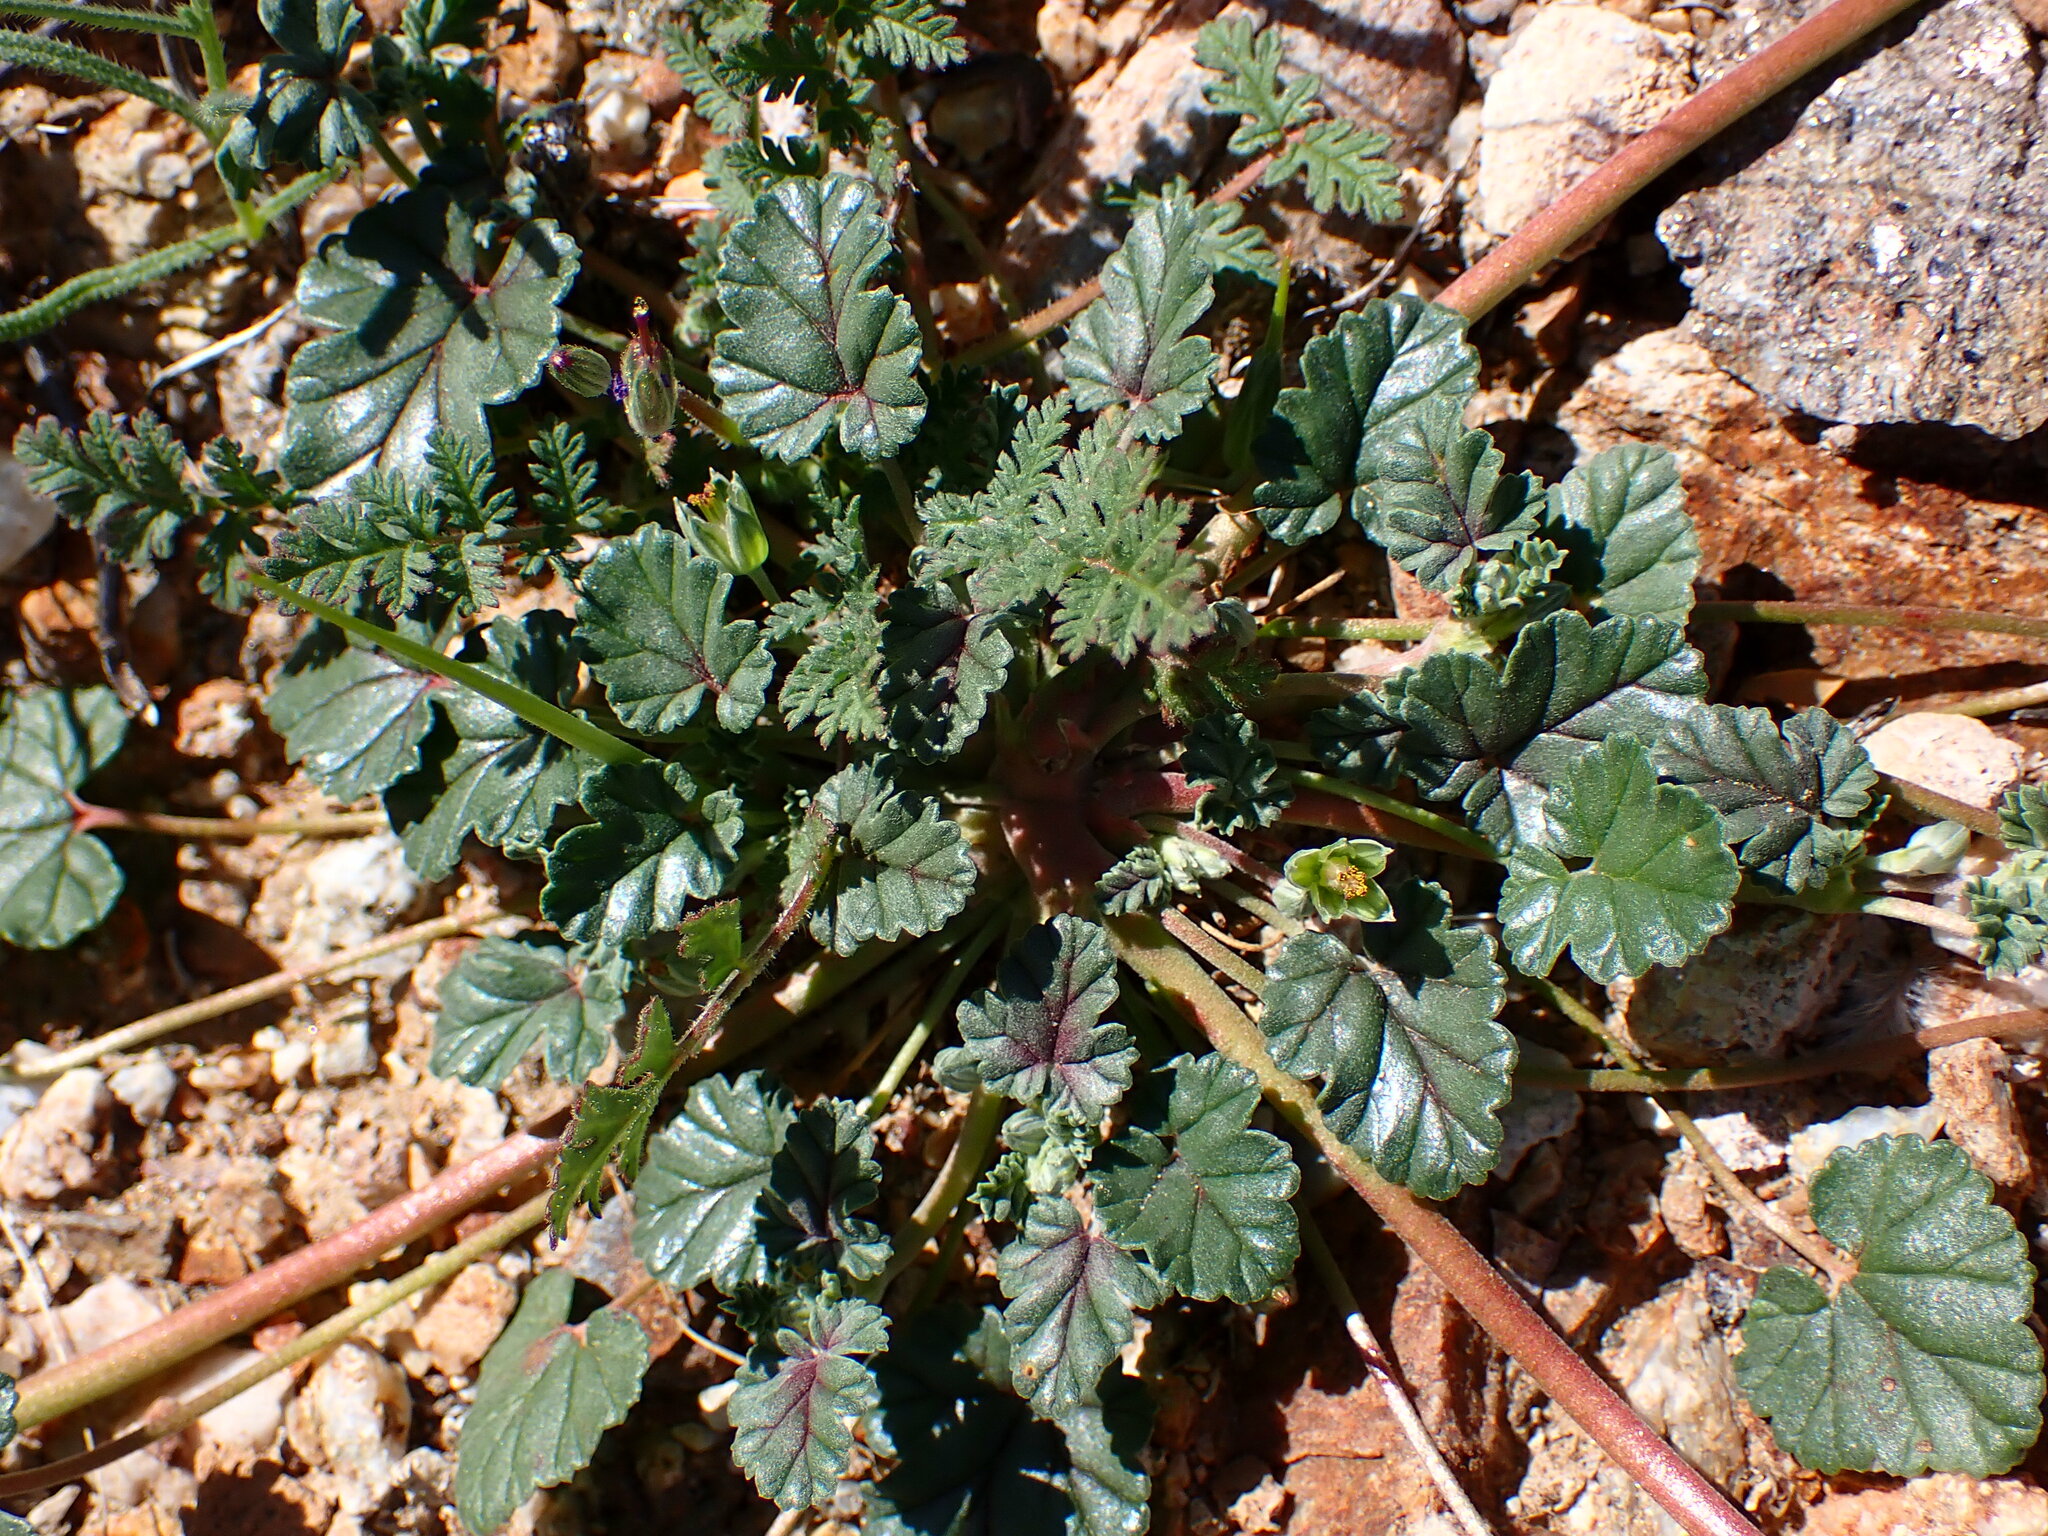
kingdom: Plantae
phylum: Tracheophyta
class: Magnoliopsida
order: Geraniales
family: Geraniaceae
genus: Erodium
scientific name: Erodium texanum
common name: Texas stork's-bill
